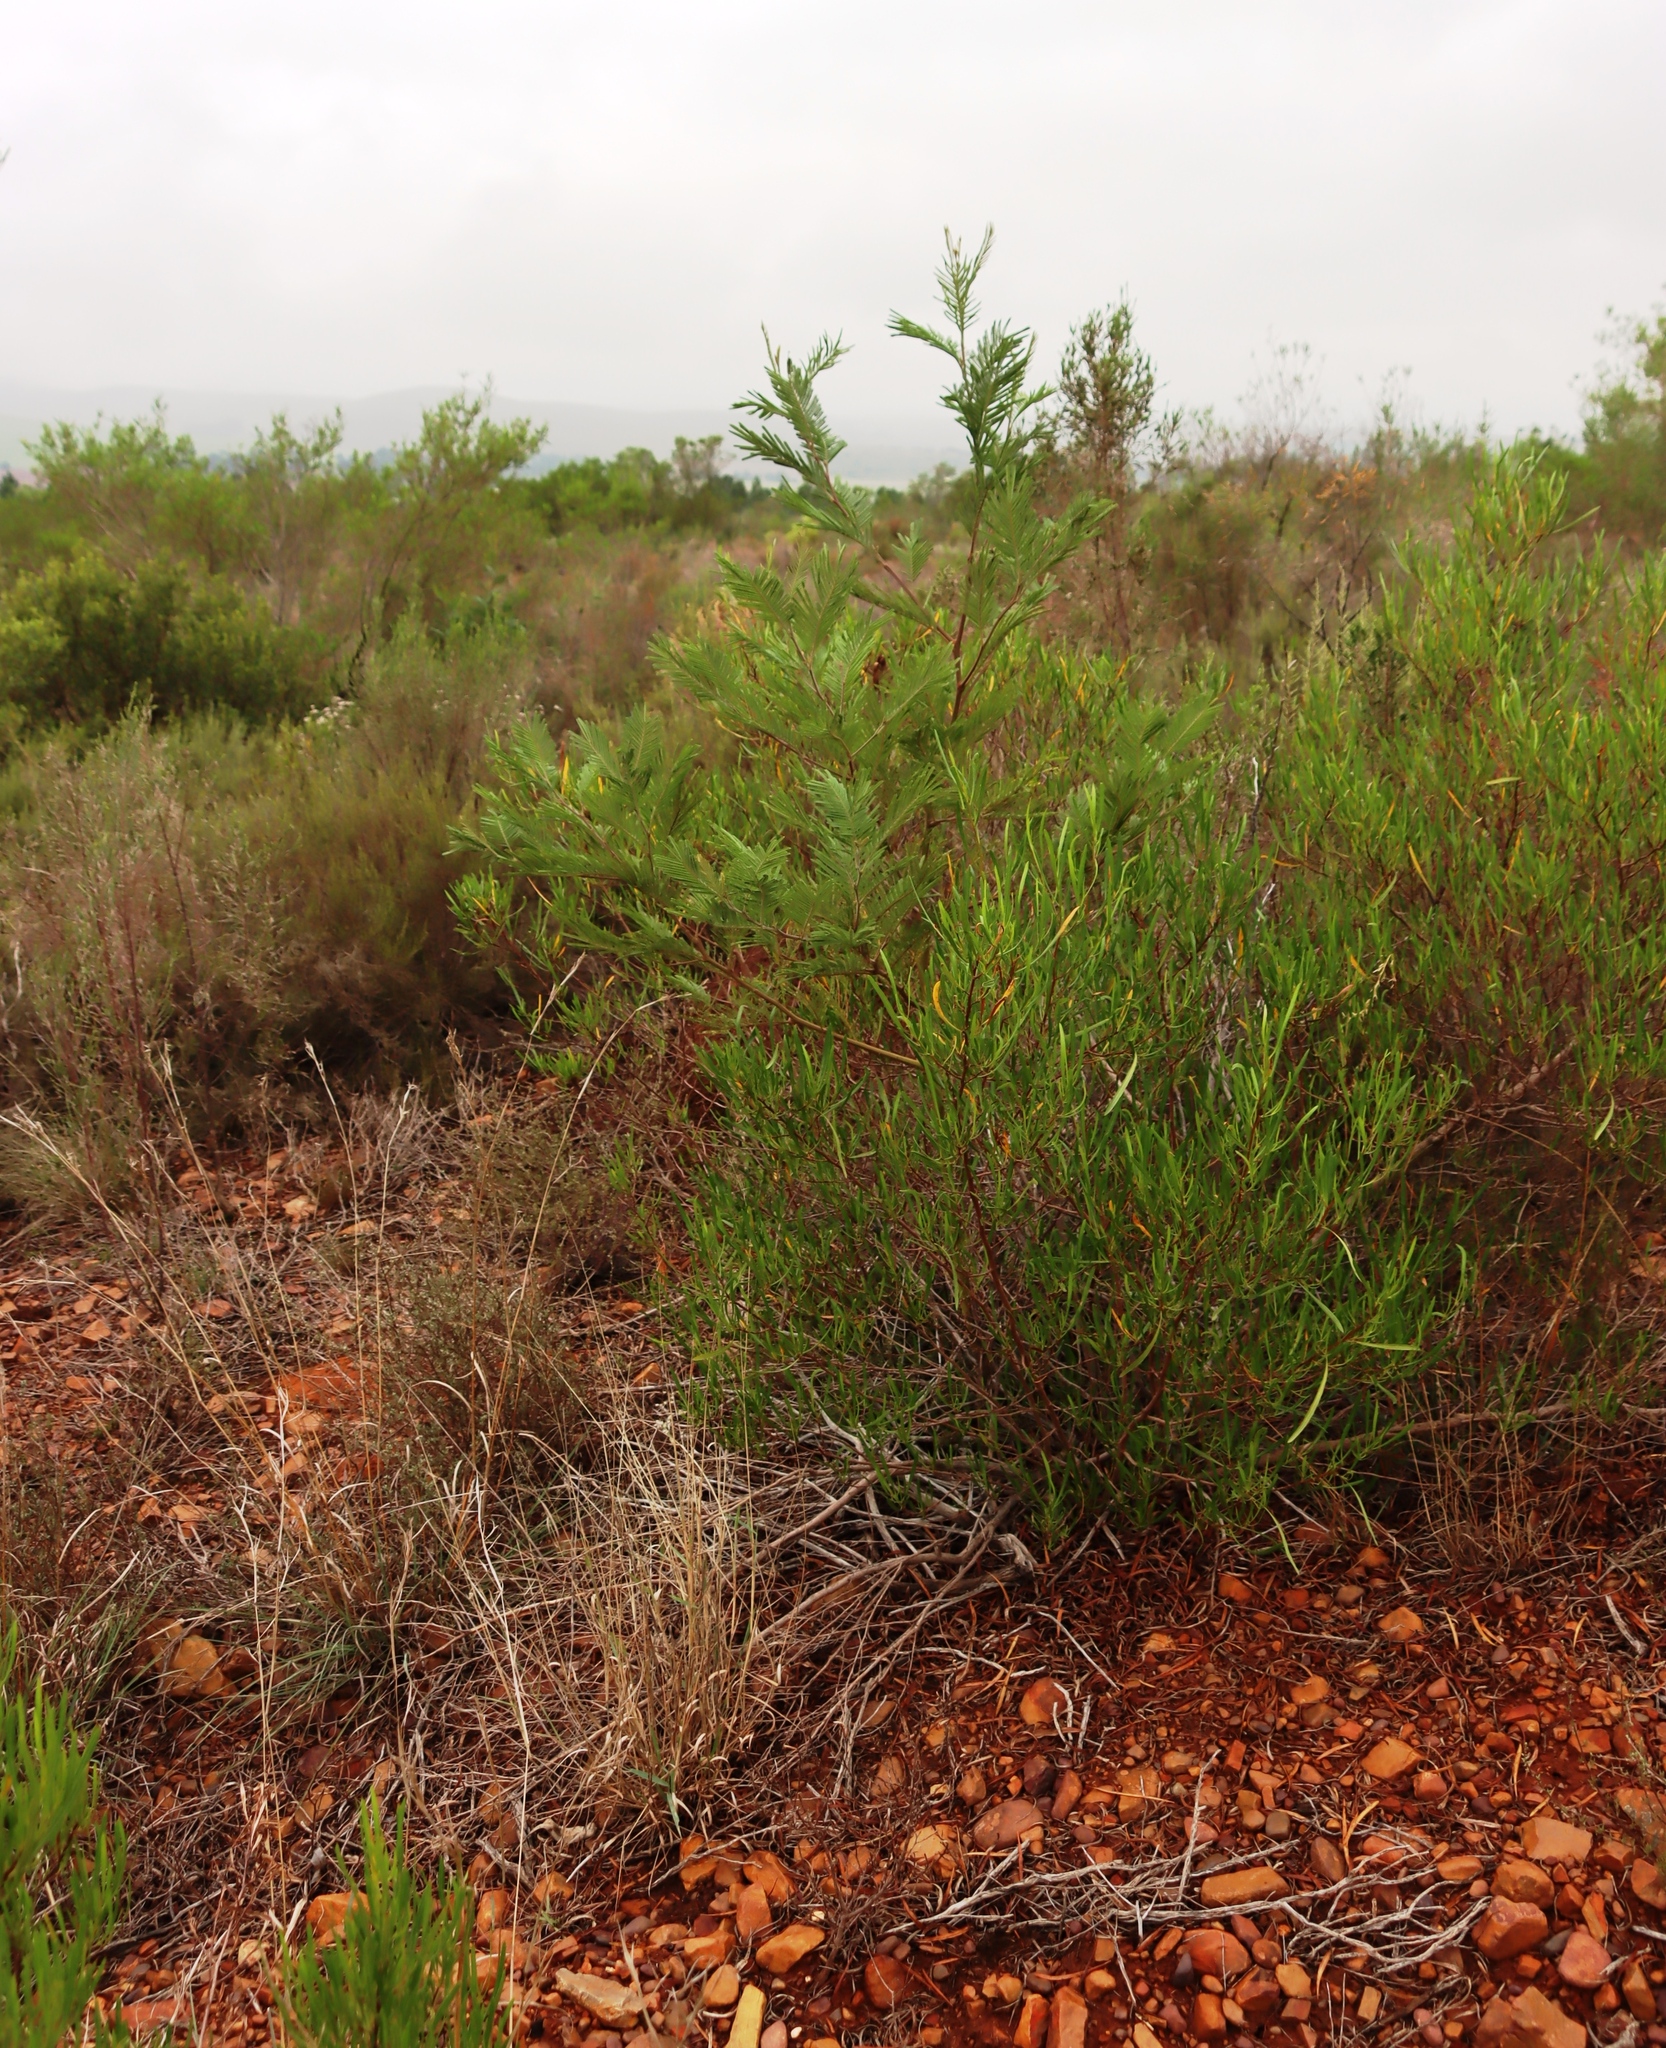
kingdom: Plantae
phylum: Tracheophyta
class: Magnoliopsida
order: Fabales
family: Fabaceae
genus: Acacia
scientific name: Acacia mearnsii
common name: Black wattle
